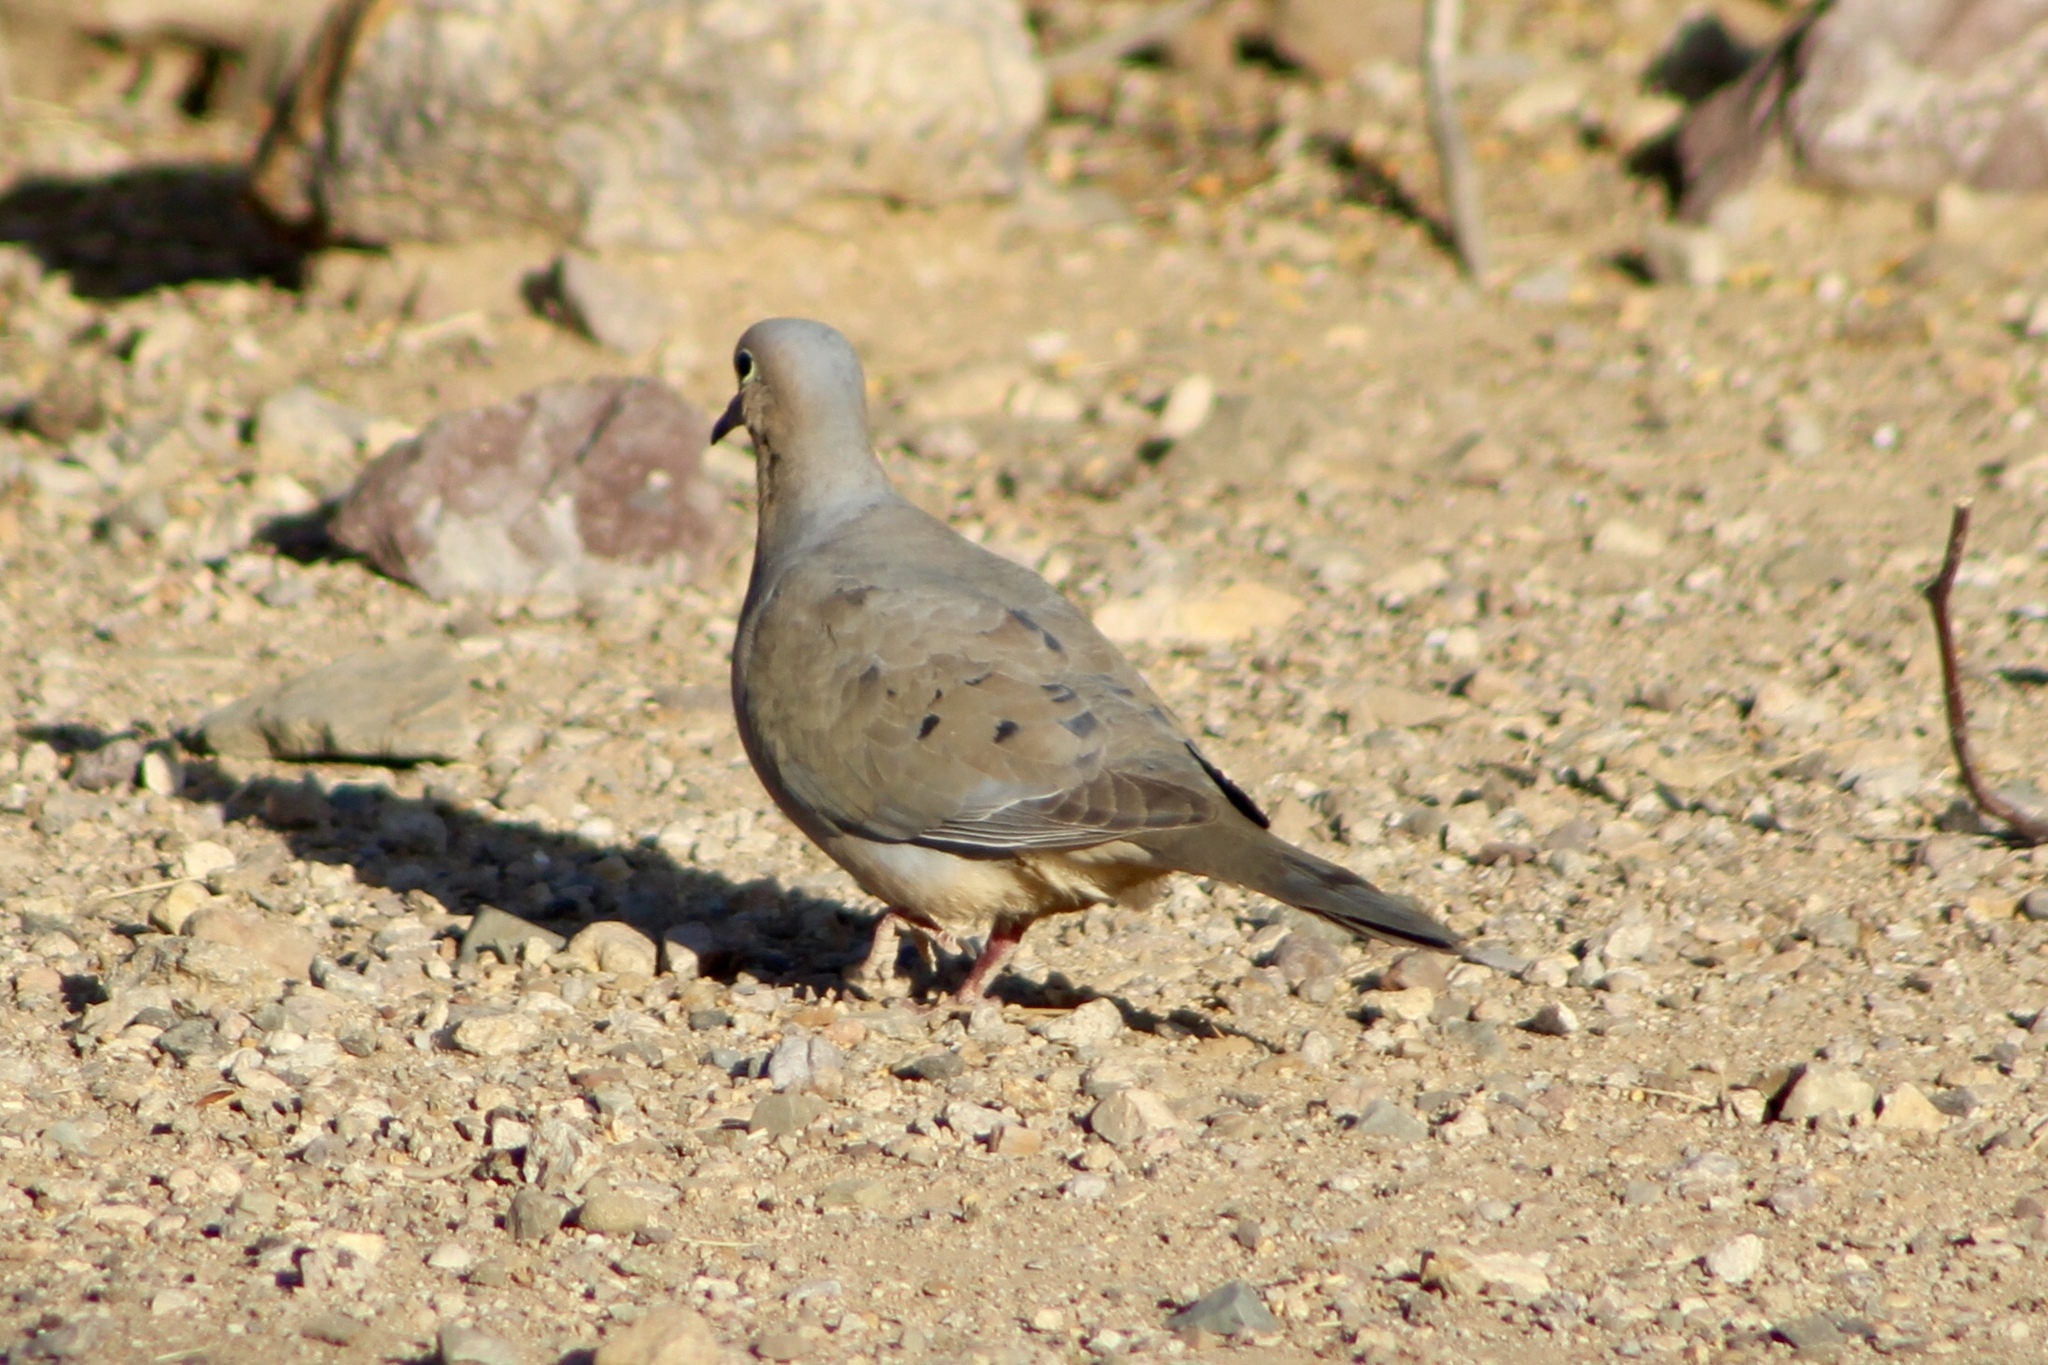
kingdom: Animalia
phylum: Chordata
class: Aves
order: Columbiformes
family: Columbidae
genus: Zenaida
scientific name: Zenaida macroura
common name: Mourning dove
